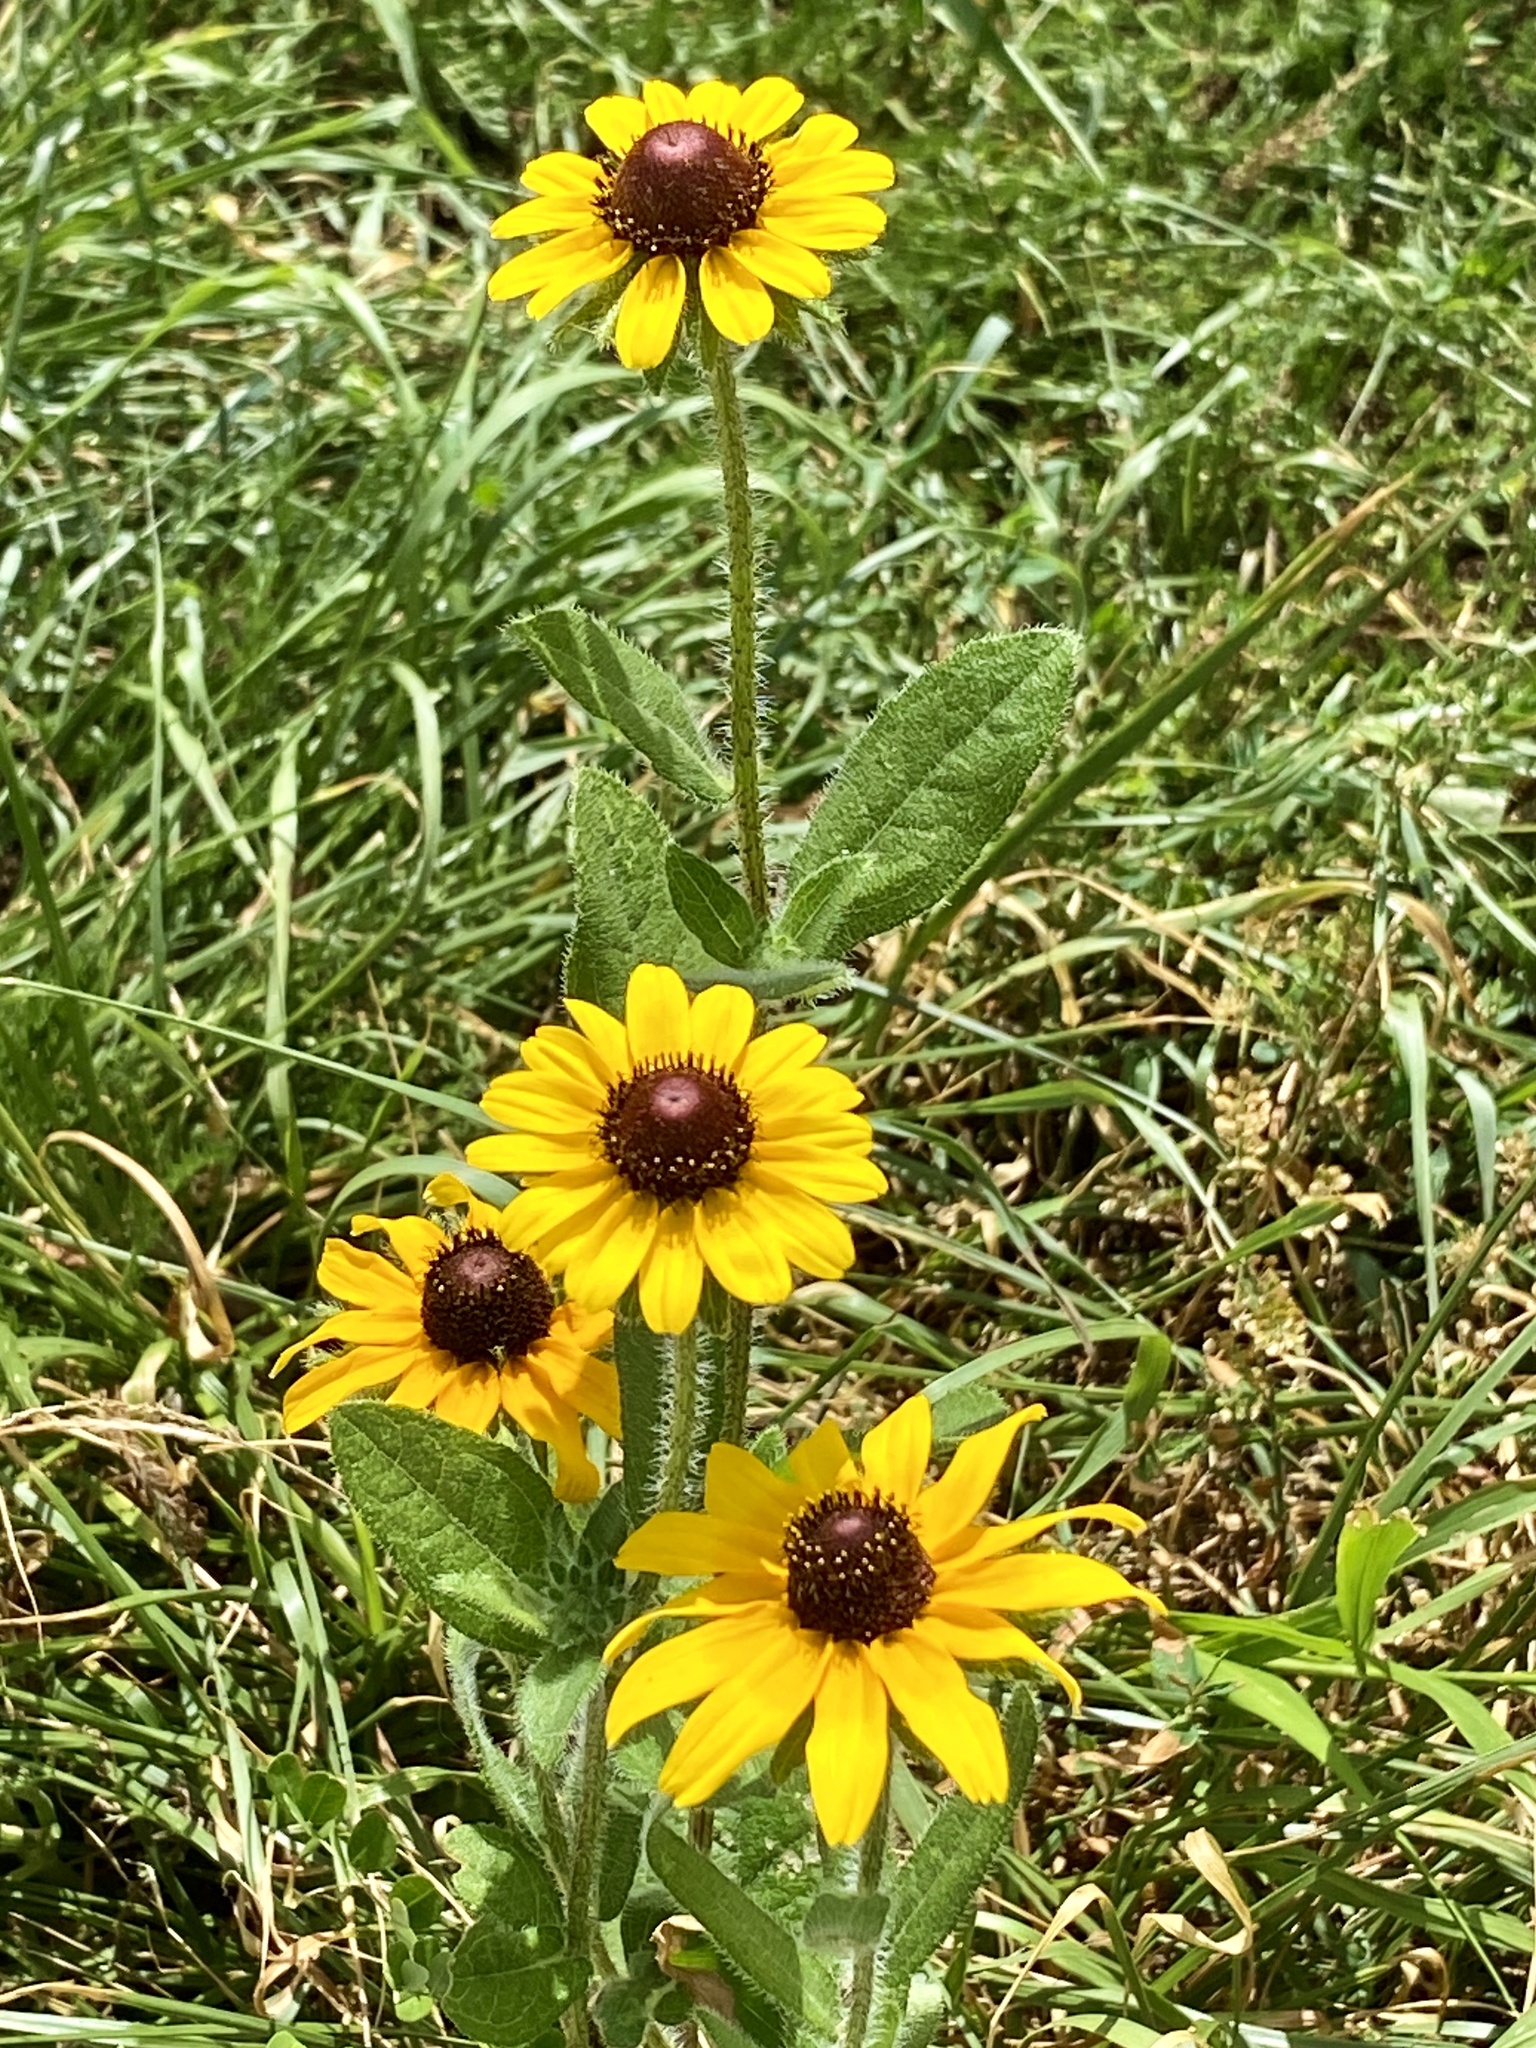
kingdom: Plantae
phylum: Tracheophyta
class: Magnoliopsida
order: Asterales
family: Asteraceae
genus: Rudbeckia
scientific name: Rudbeckia hirta
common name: Black-eyed-susan
